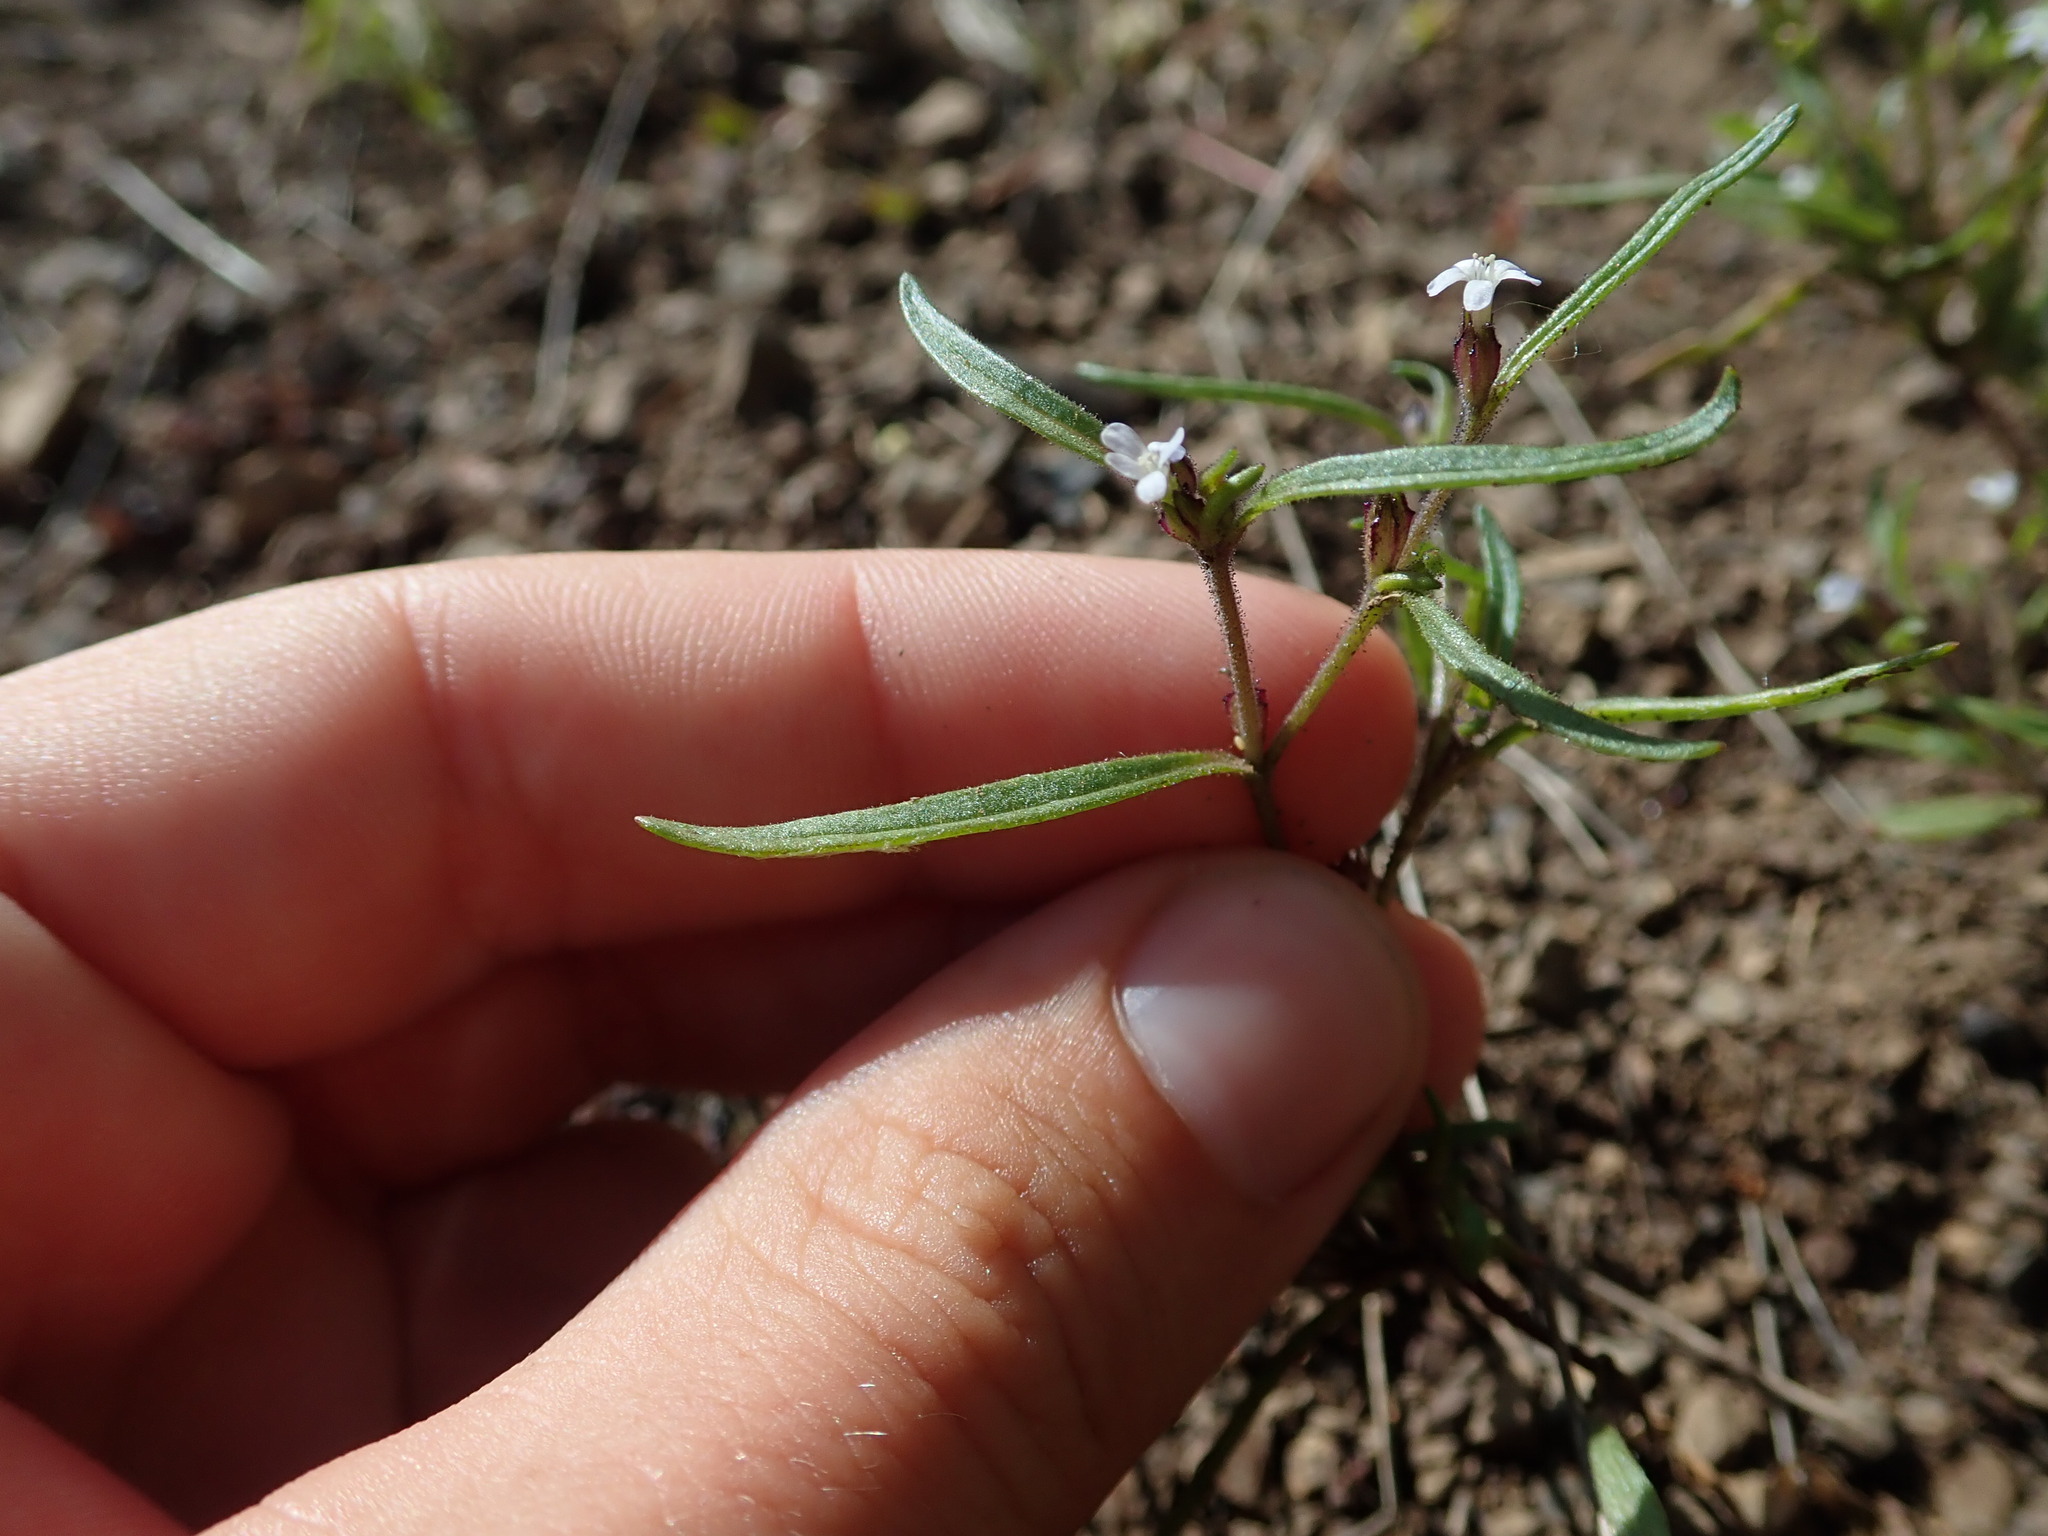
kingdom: Plantae
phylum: Tracheophyta
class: Magnoliopsida
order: Ericales
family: Polemoniaceae
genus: Collomia
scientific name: Collomia tenella
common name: Diffuse collomia
